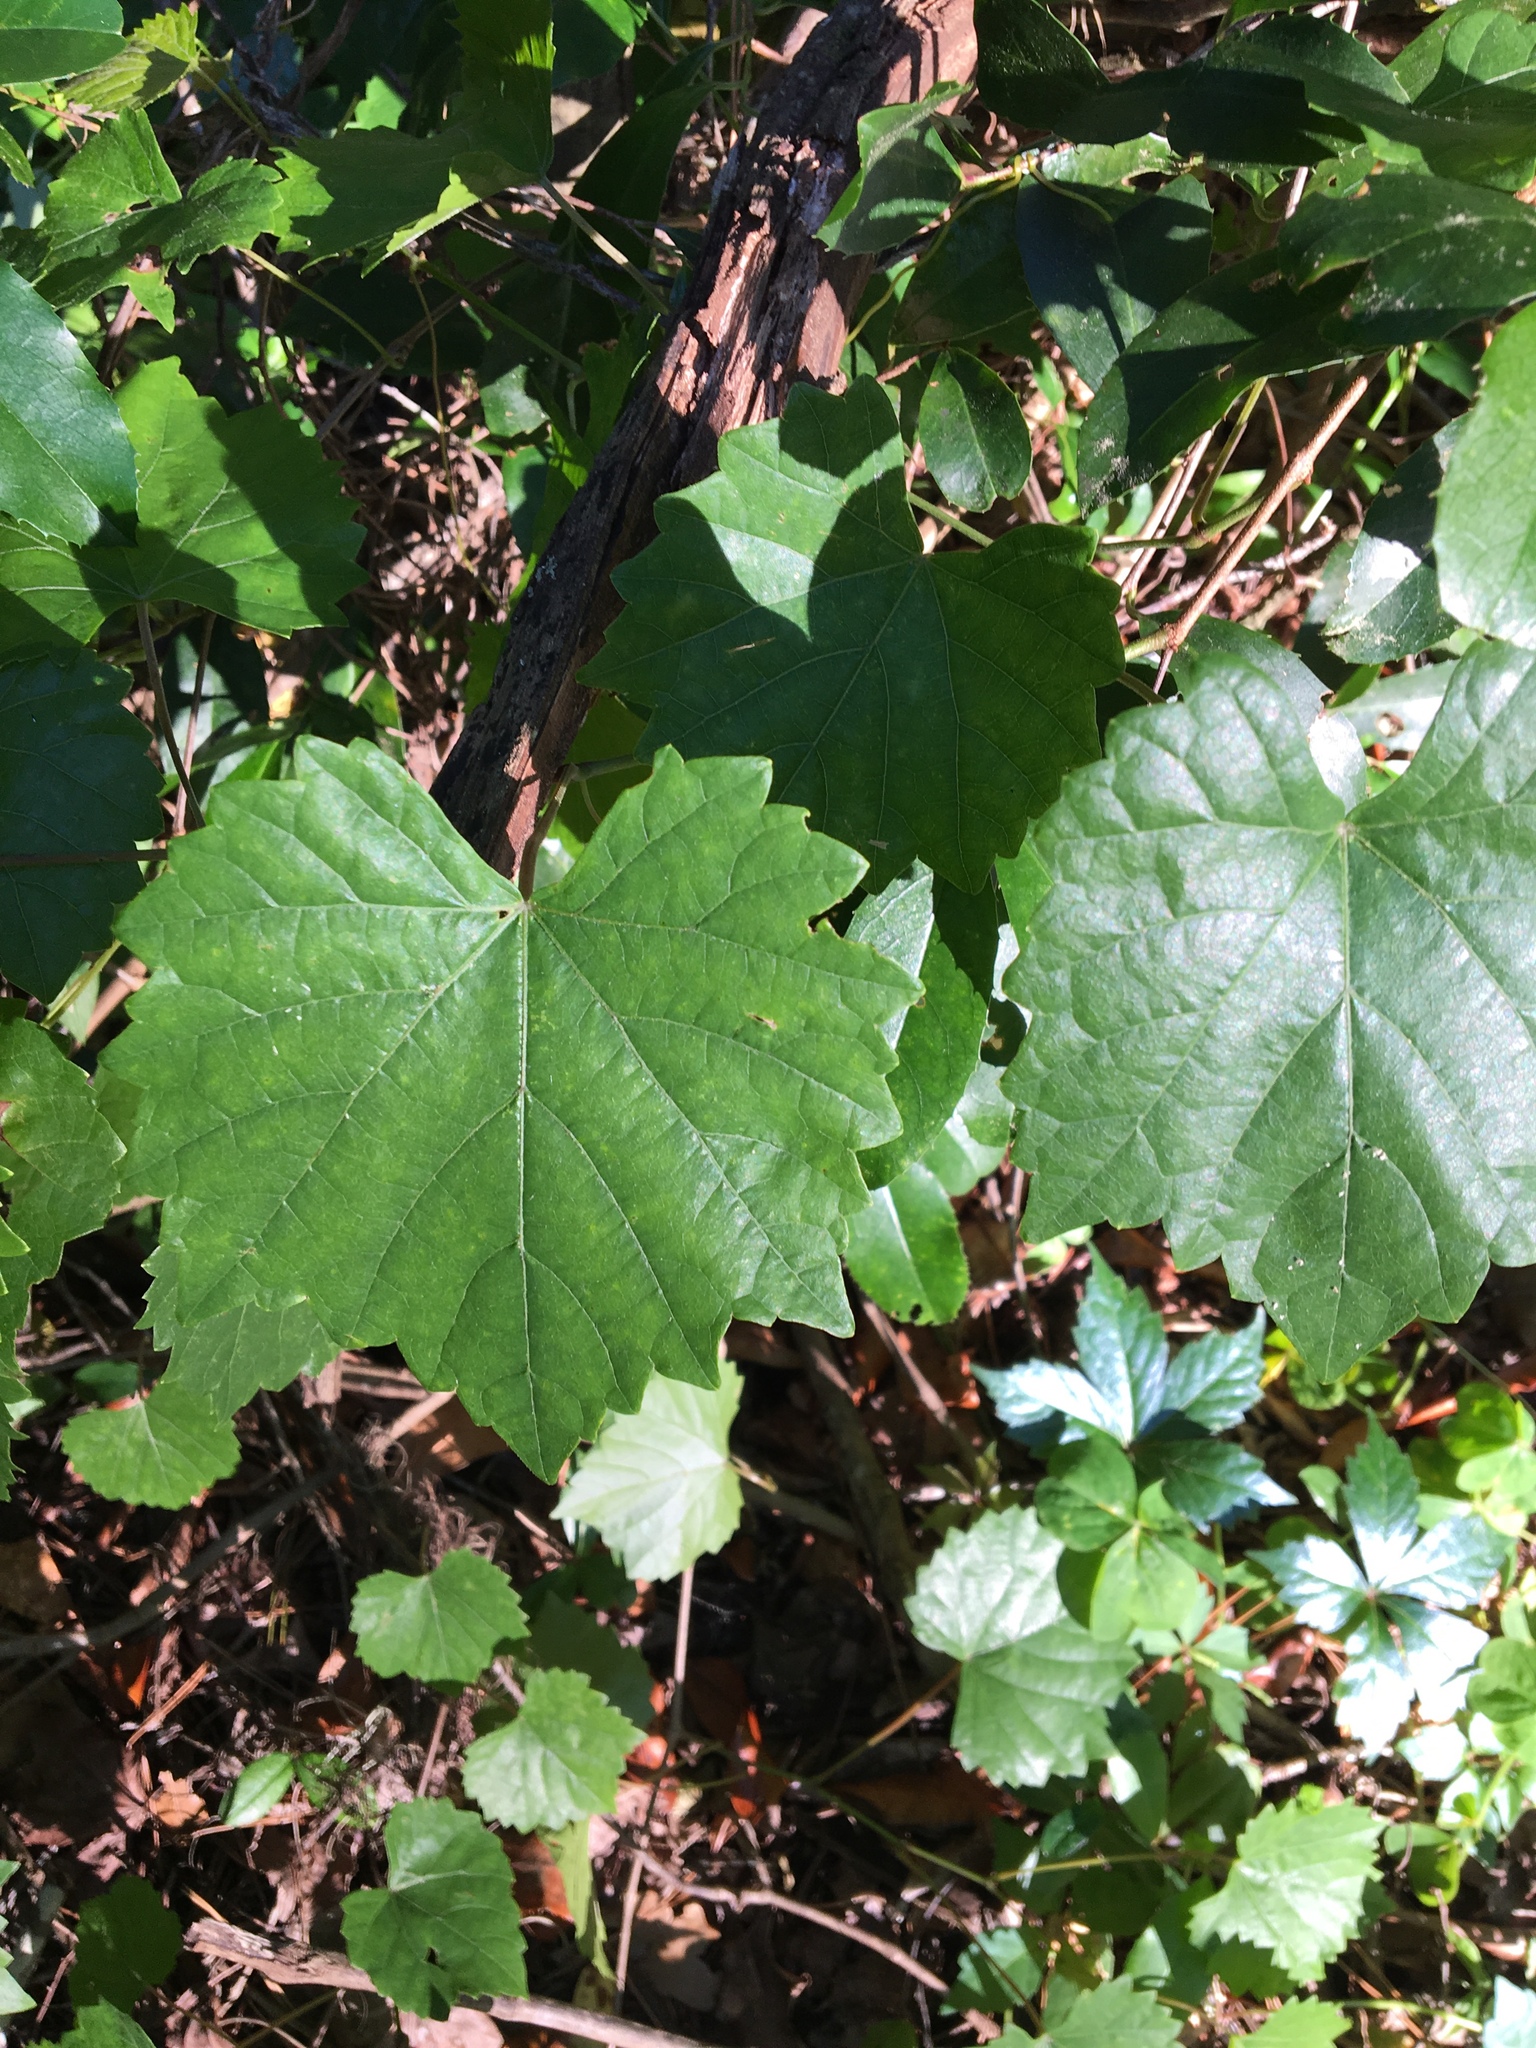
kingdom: Plantae
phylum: Tracheophyta
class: Magnoliopsida
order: Vitales
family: Vitaceae
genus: Vitis
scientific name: Vitis rotundifolia
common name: Muscadine grape
